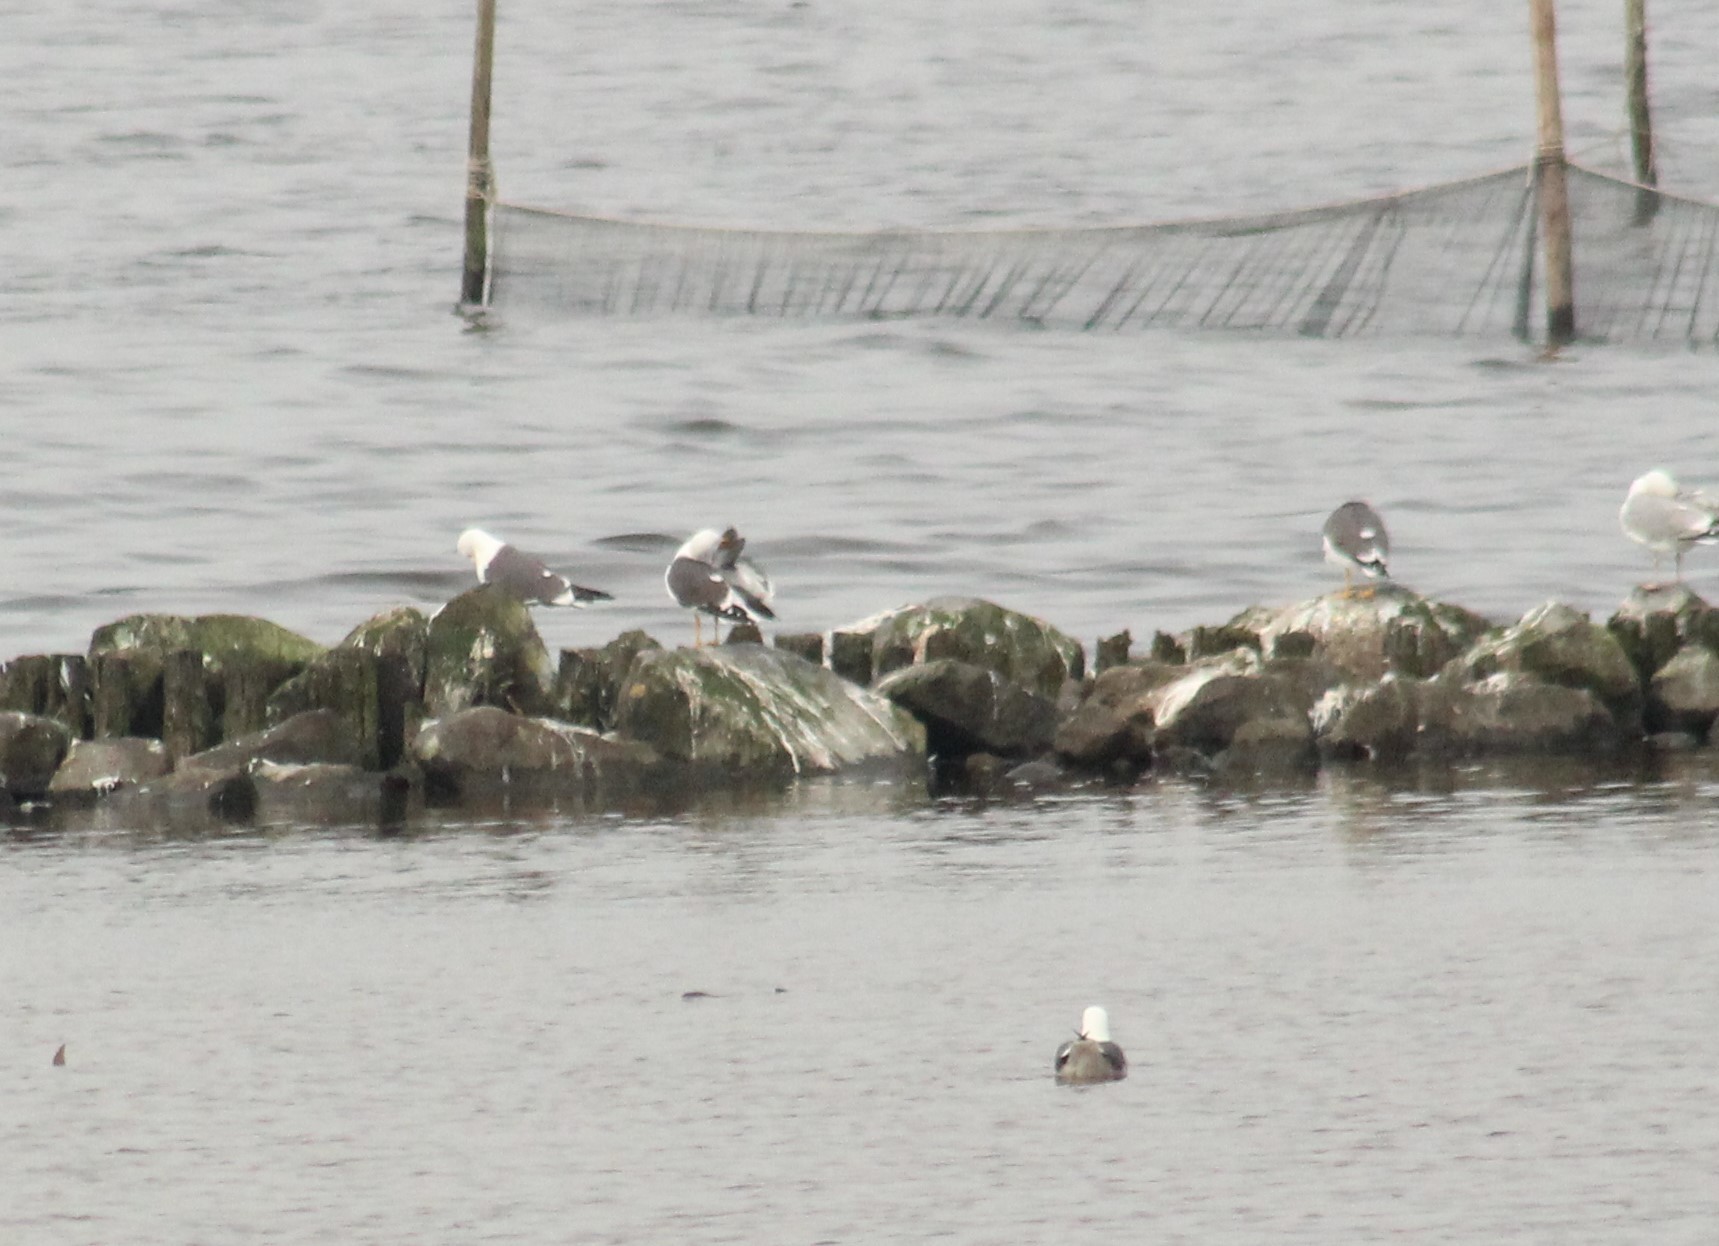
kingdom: Animalia
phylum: Chordata
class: Aves
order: Charadriiformes
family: Laridae
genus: Larus
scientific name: Larus fuscus
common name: Lesser black-backed gull
